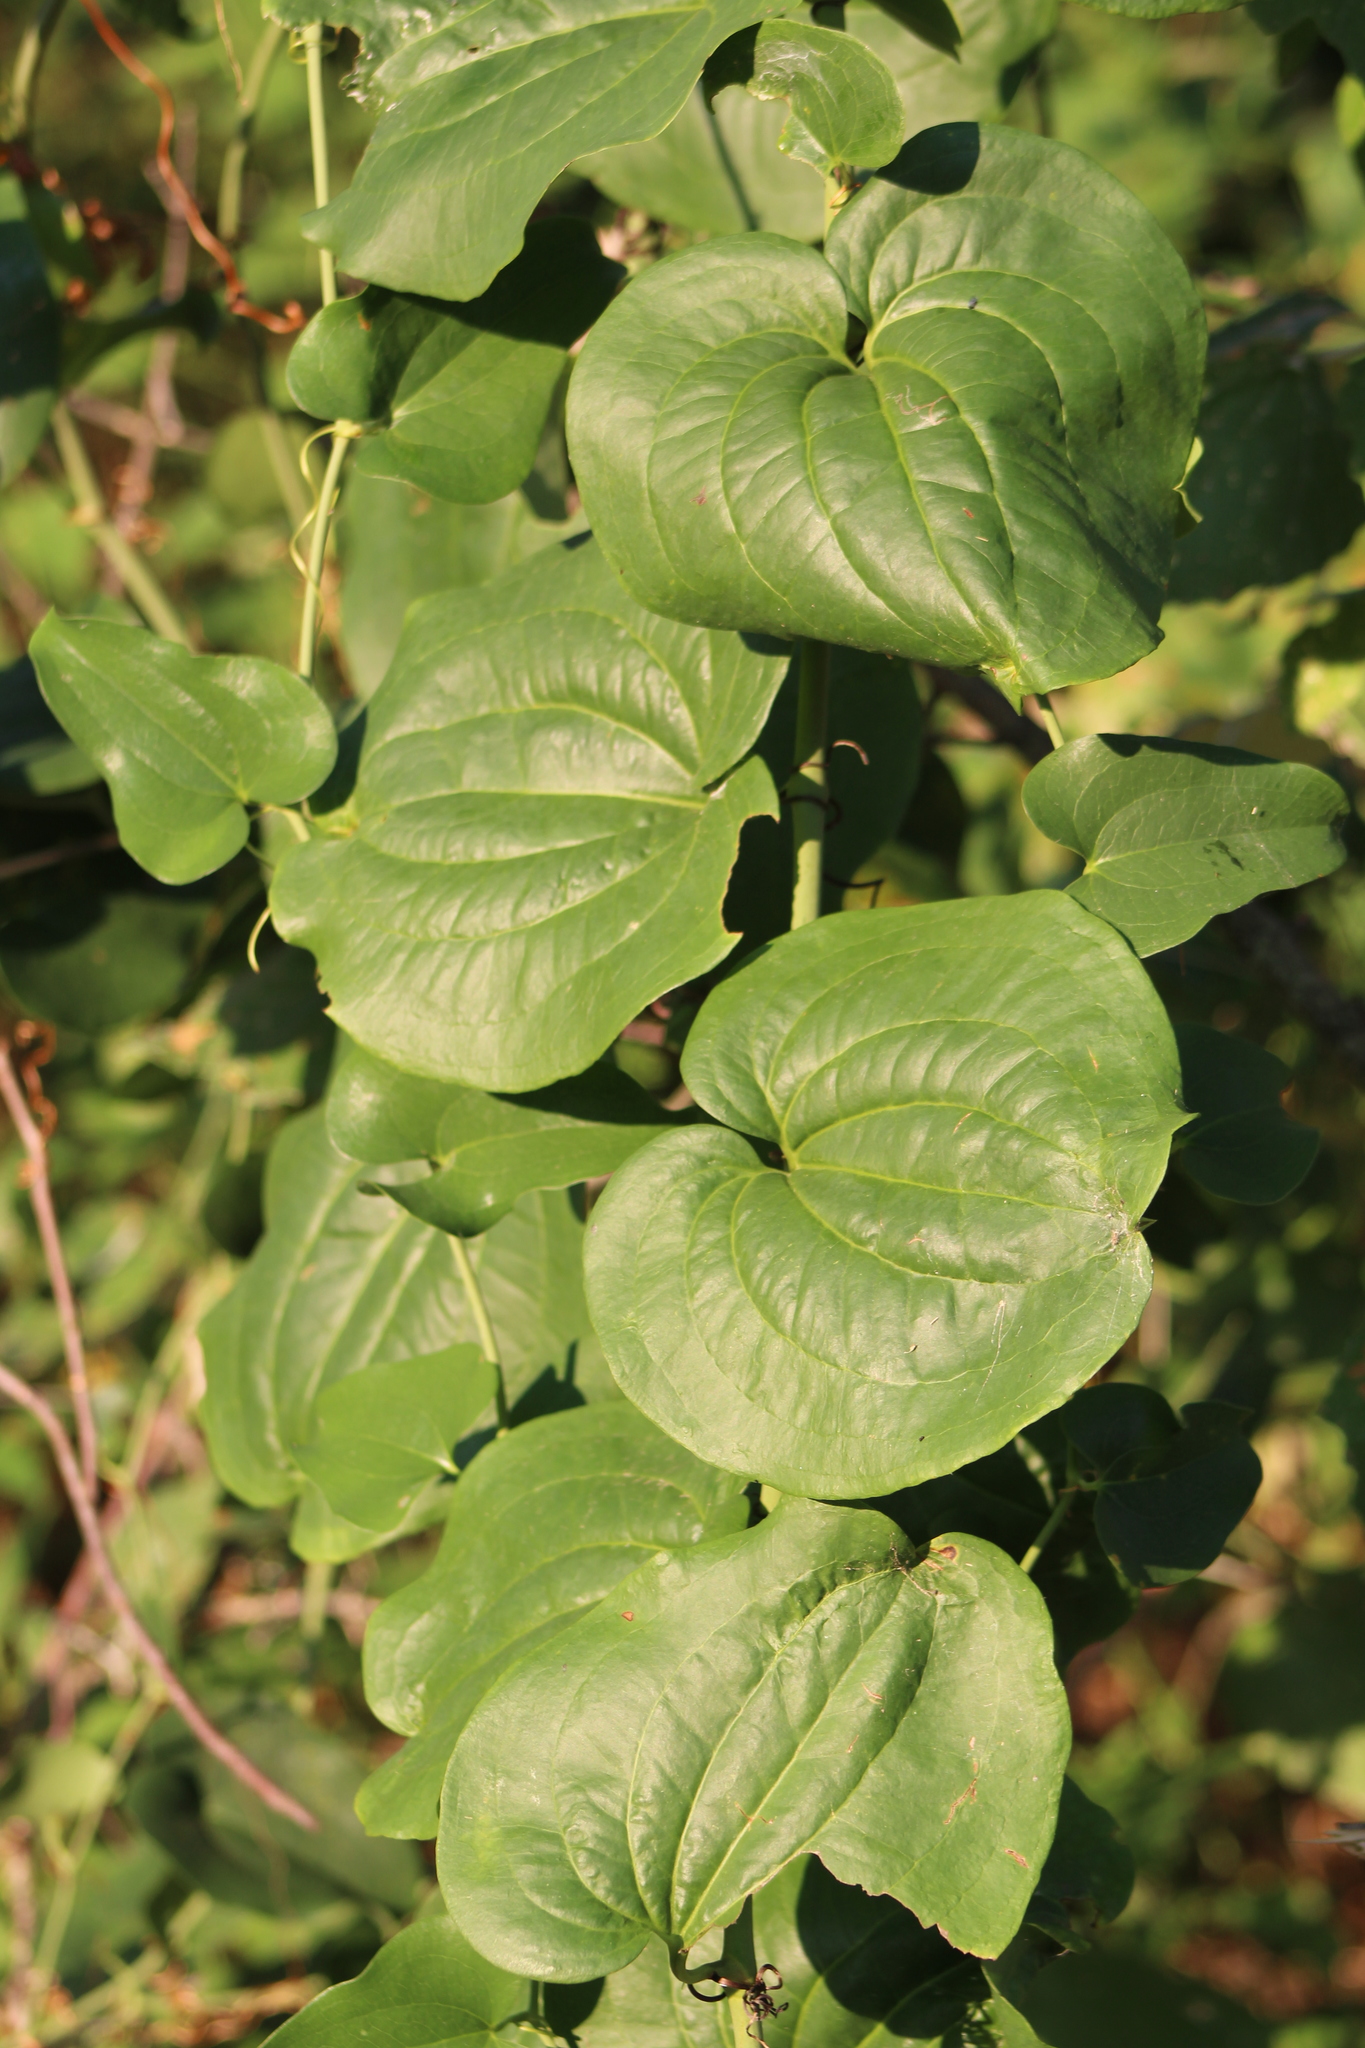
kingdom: Plantae
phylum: Tracheophyta
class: Liliopsida
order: Liliales
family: Smilacaceae
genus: Smilax
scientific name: Smilax rotundifolia
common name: Bullbriar
